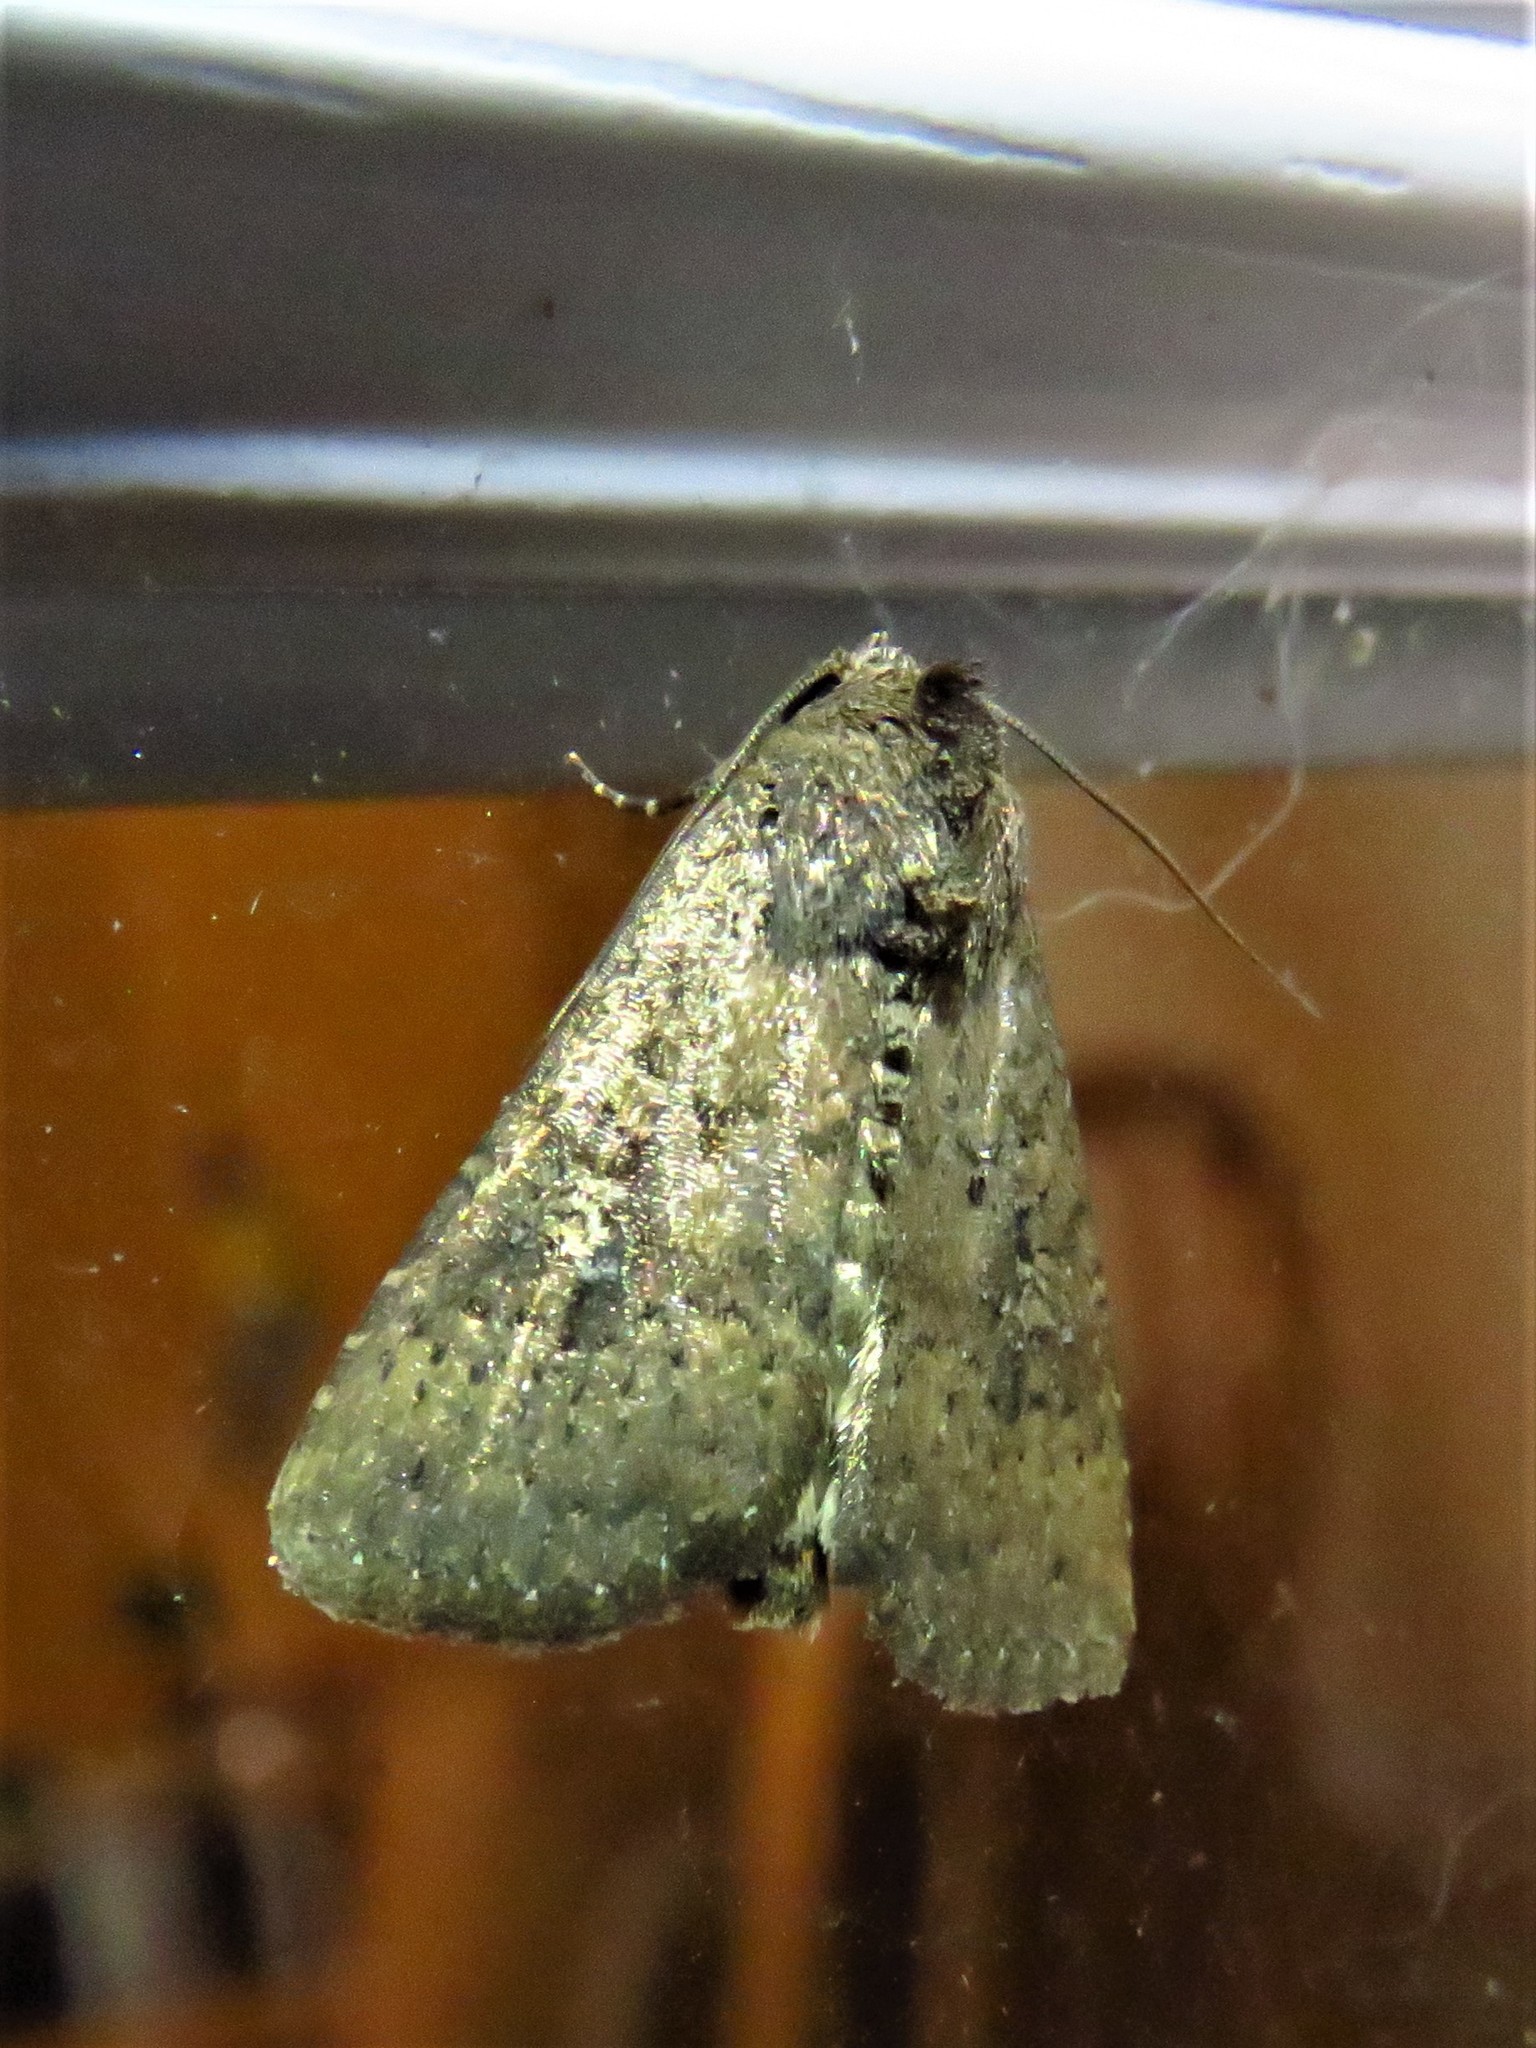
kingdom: Animalia
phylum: Arthropoda
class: Insecta
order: Lepidoptera
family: Noctuidae
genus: Condica
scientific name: Condica sutor
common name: Cobbler moth
